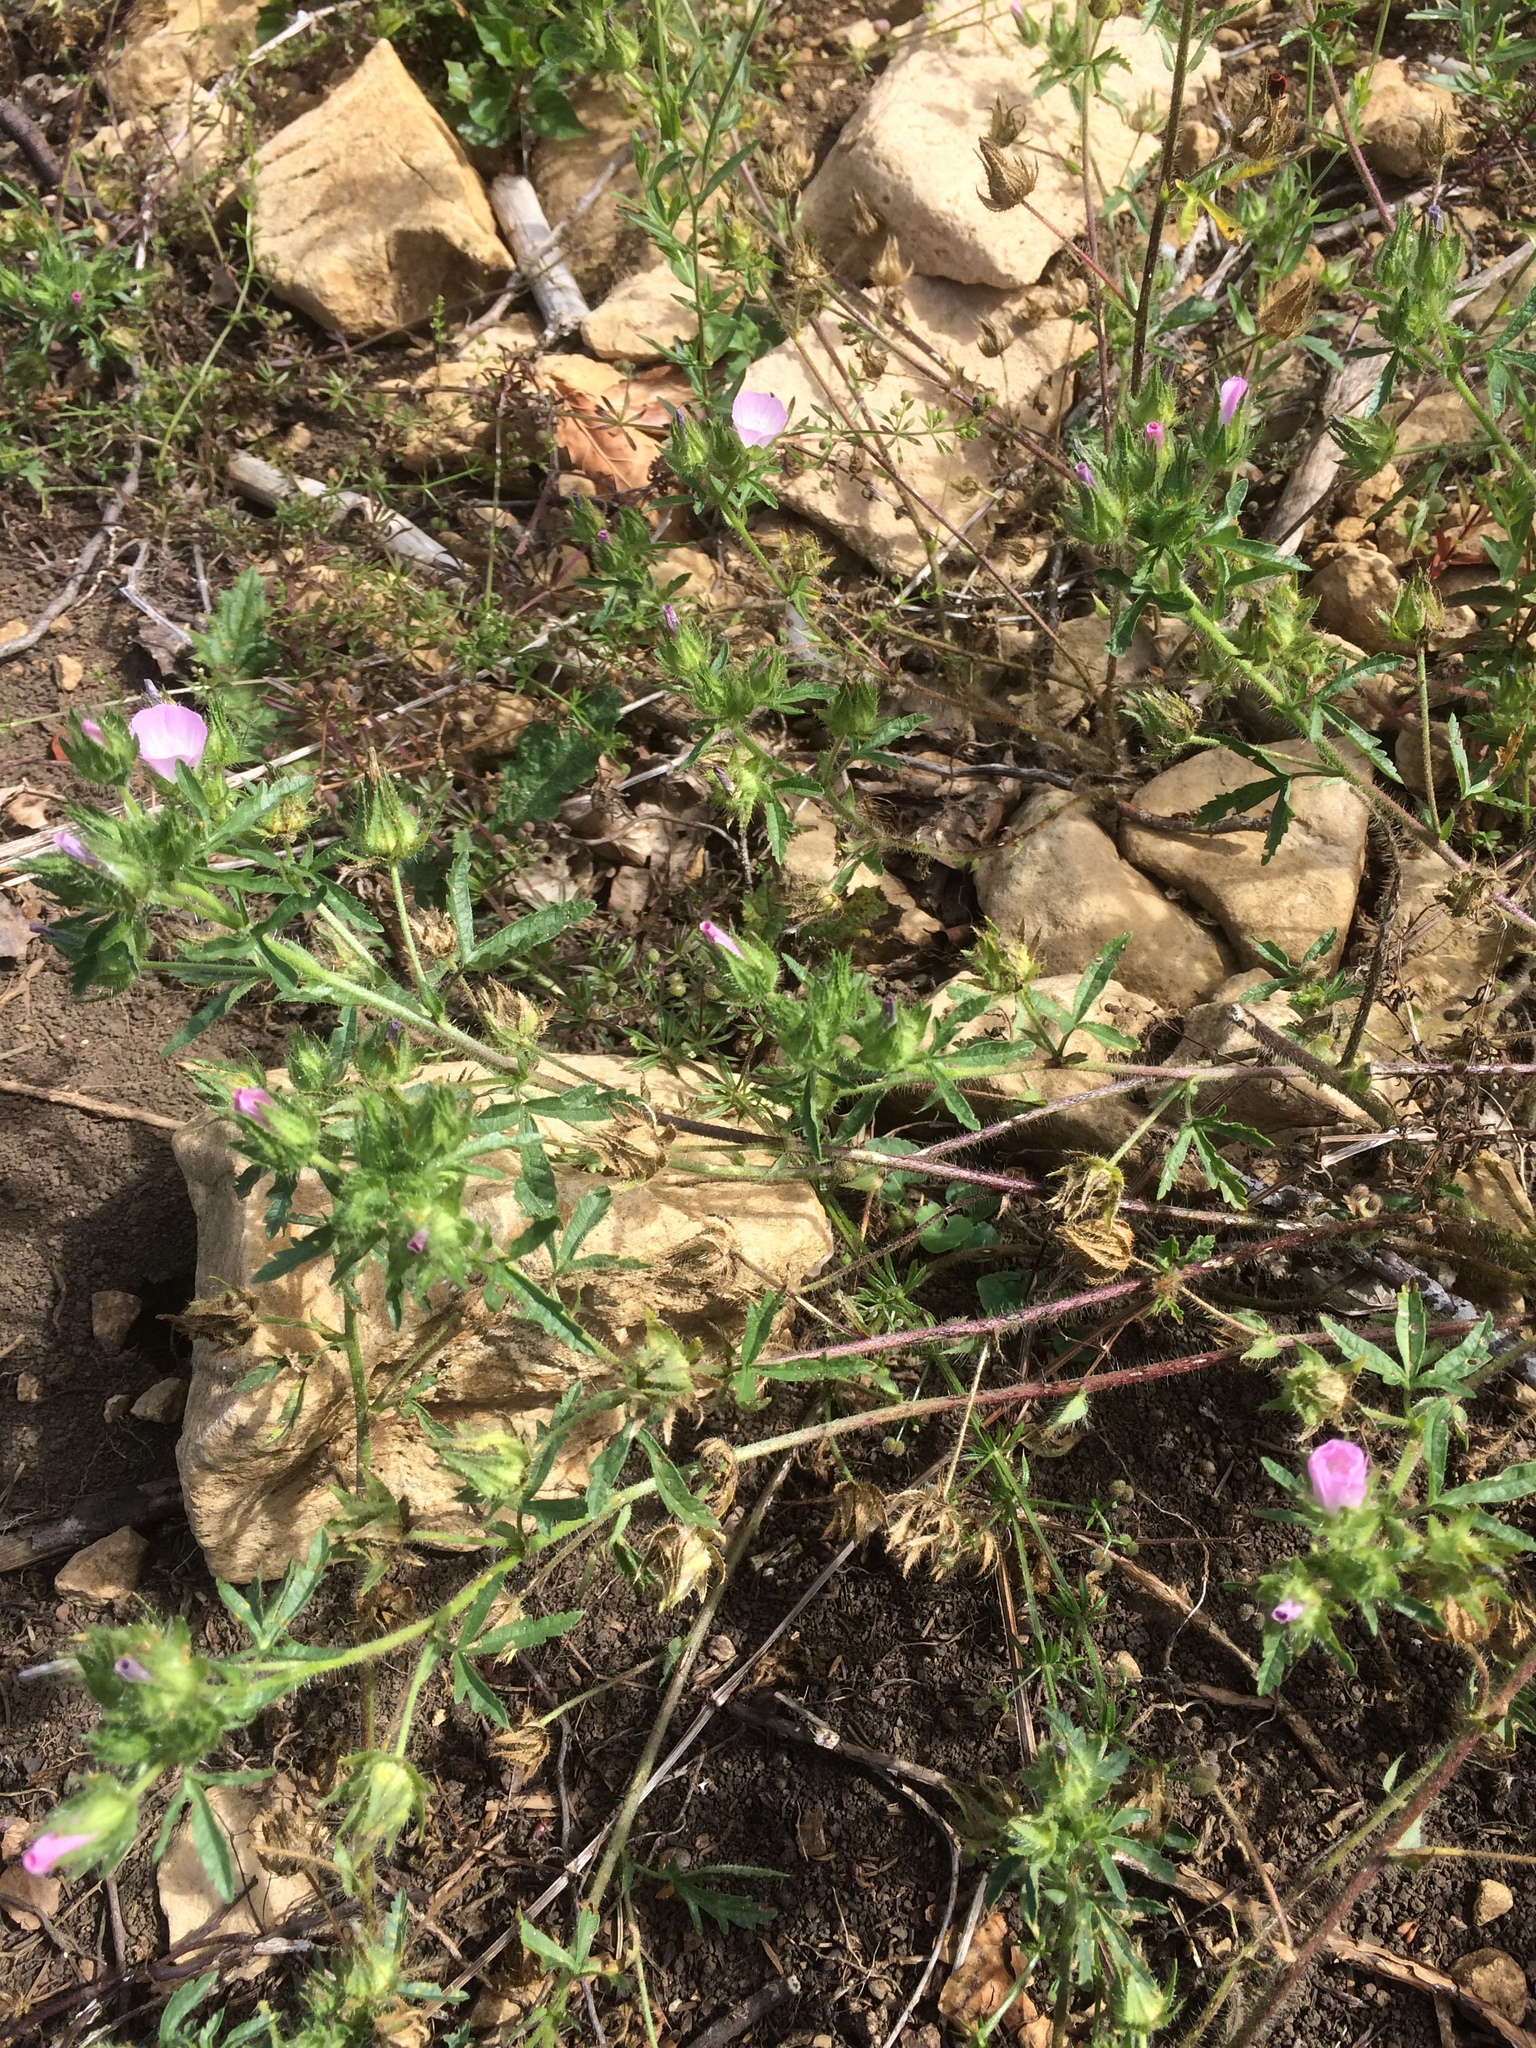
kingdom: Plantae
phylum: Tracheophyta
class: Magnoliopsida
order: Malvales
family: Malvaceae
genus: Althaea
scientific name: Althaea hirsuta
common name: Rough marsh-mallow
